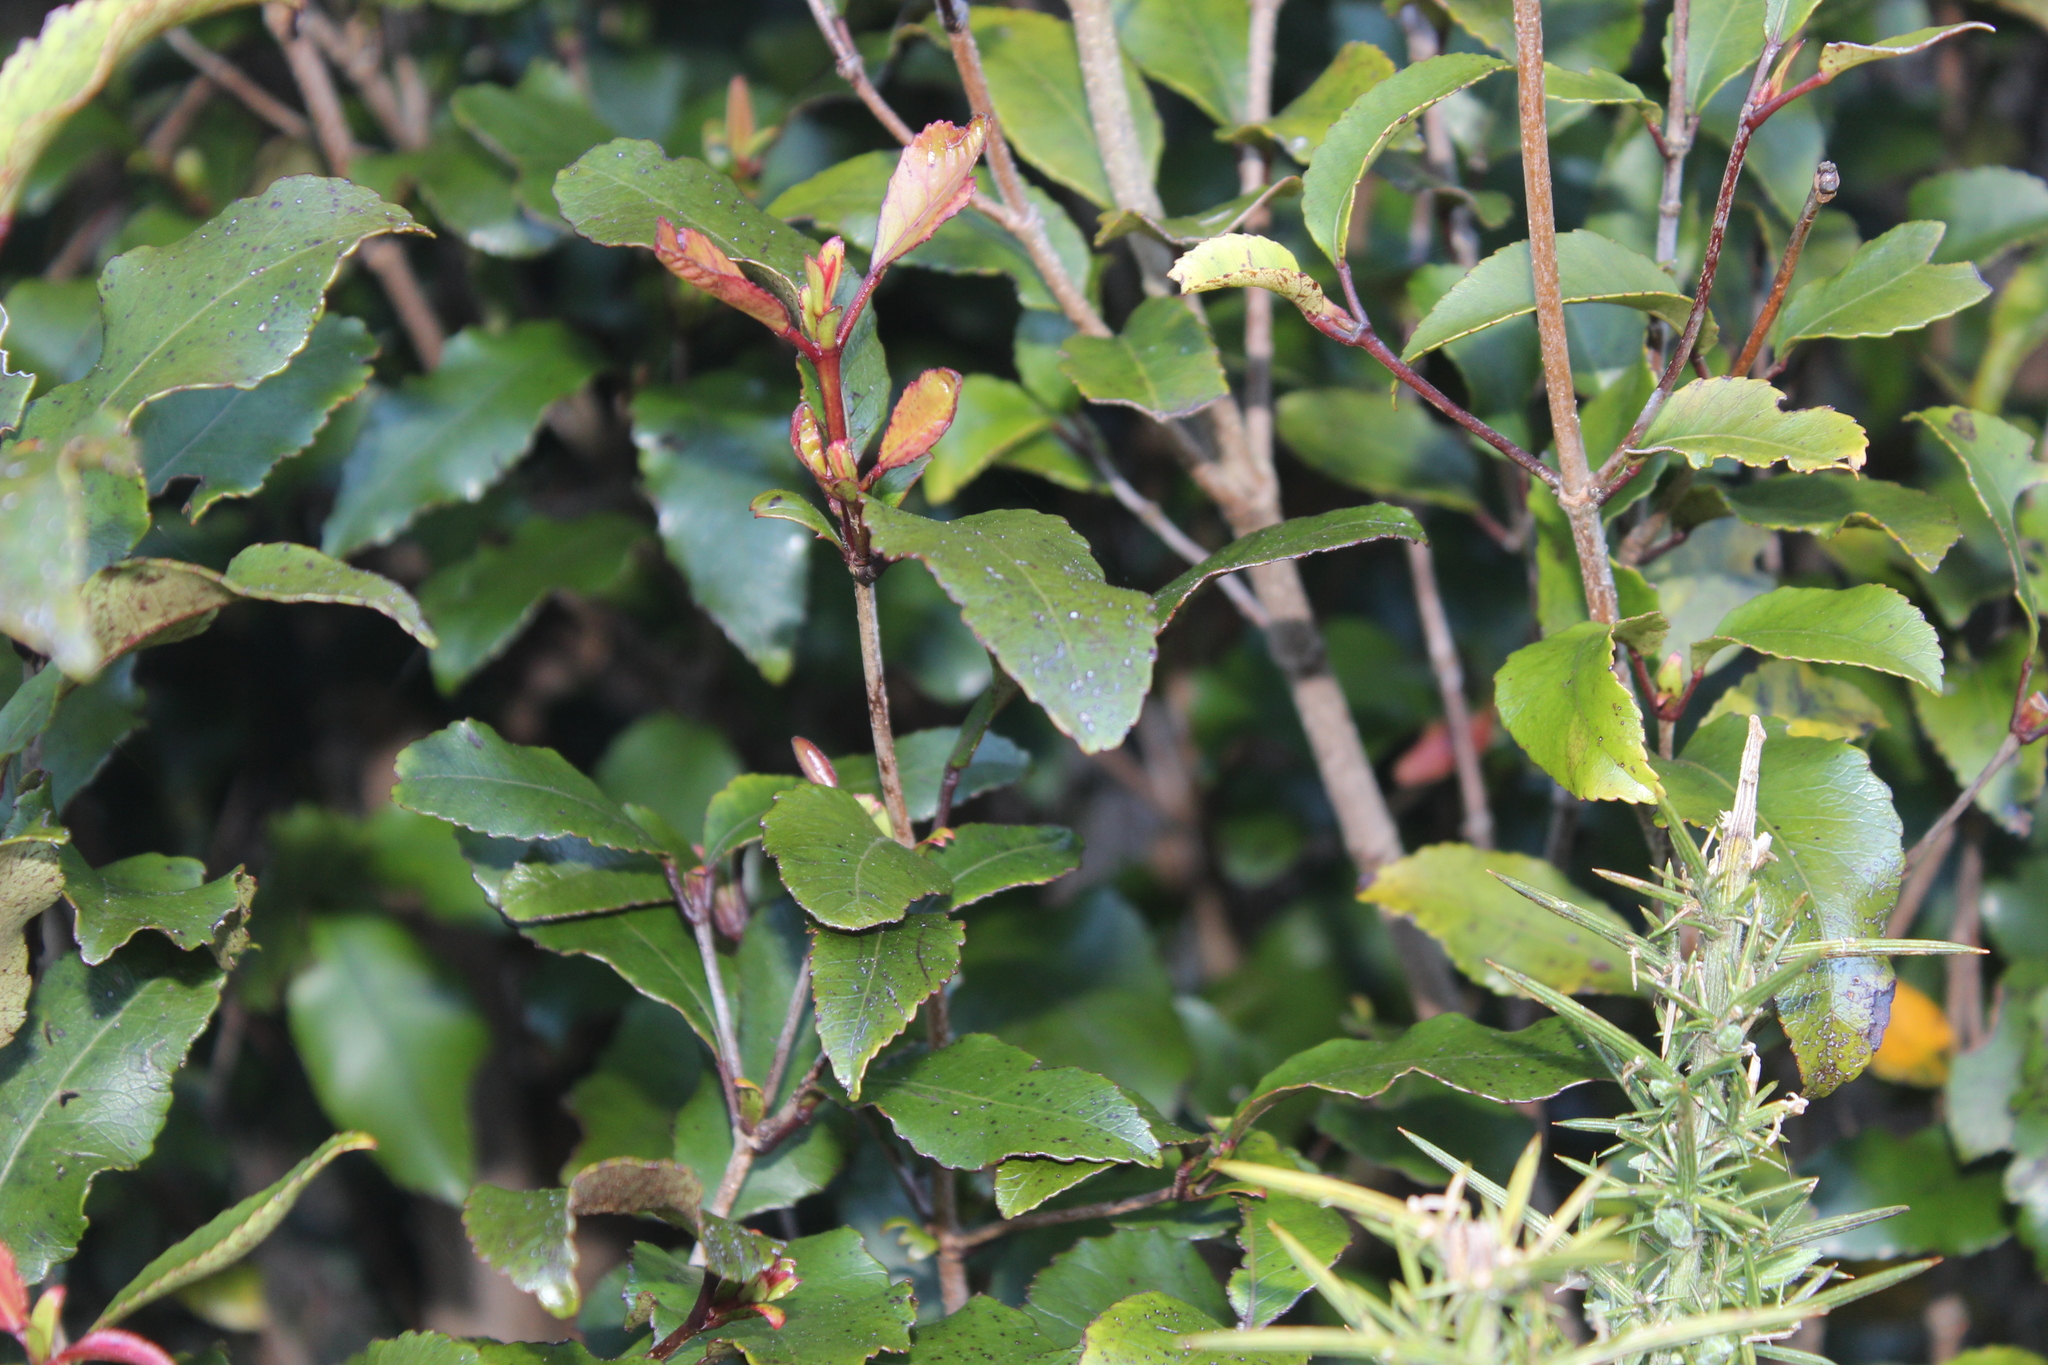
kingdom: Plantae
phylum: Tracheophyta
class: Magnoliopsida
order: Oxalidales
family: Cunoniaceae
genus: Pterophylla
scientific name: Pterophylla racemosa
